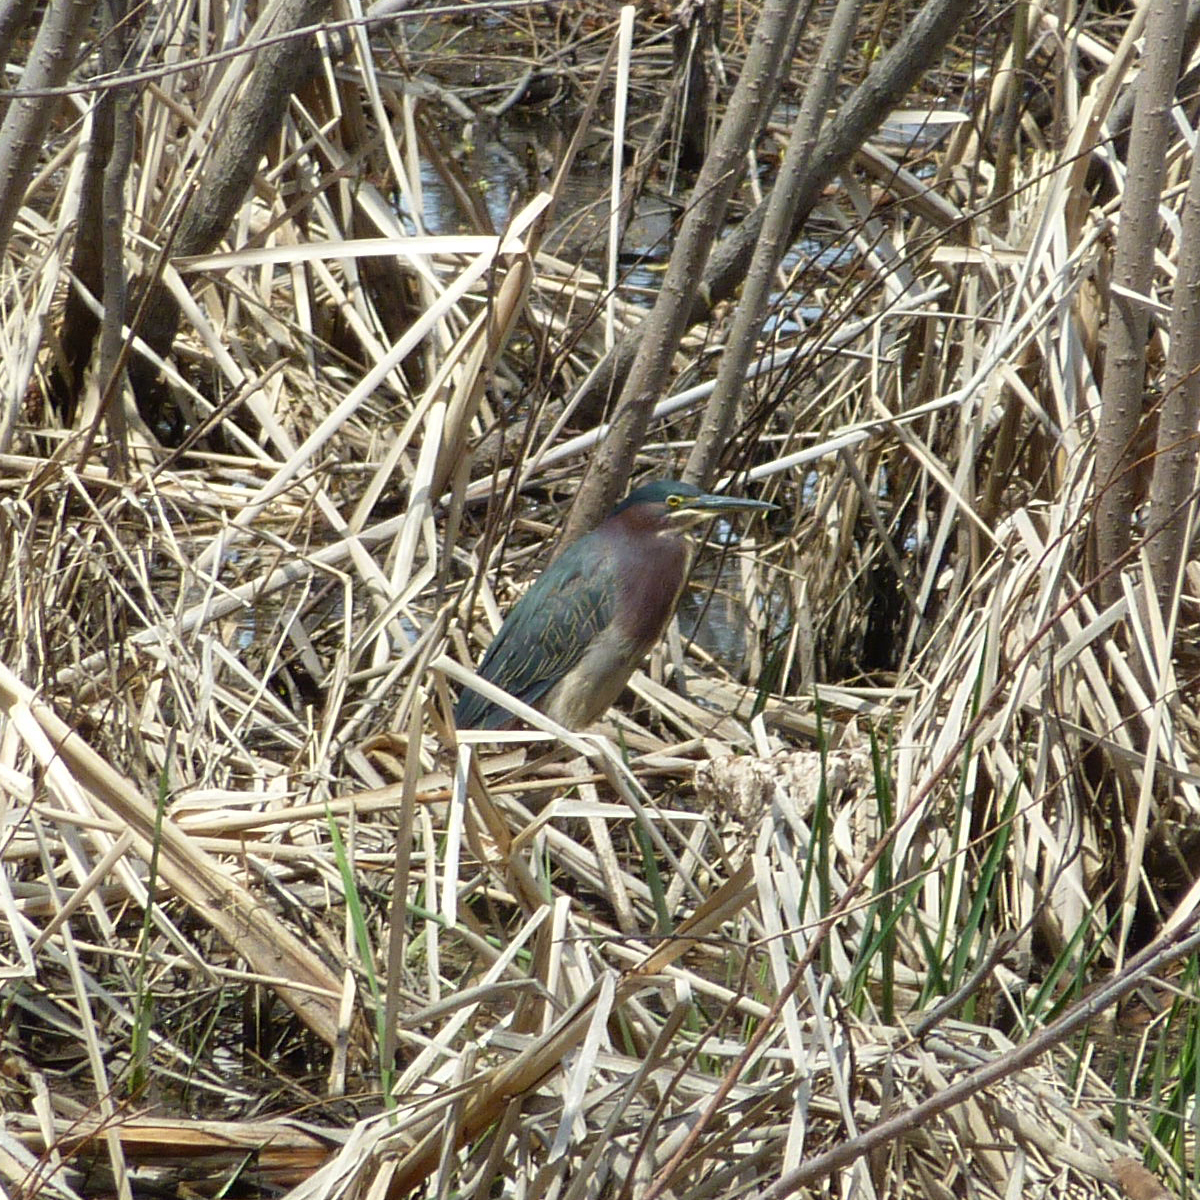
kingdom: Animalia
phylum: Chordata
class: Aves
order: Pelecaniformes
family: Ardeidae
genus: Butorides
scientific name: Butorides virescens
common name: Green heron
